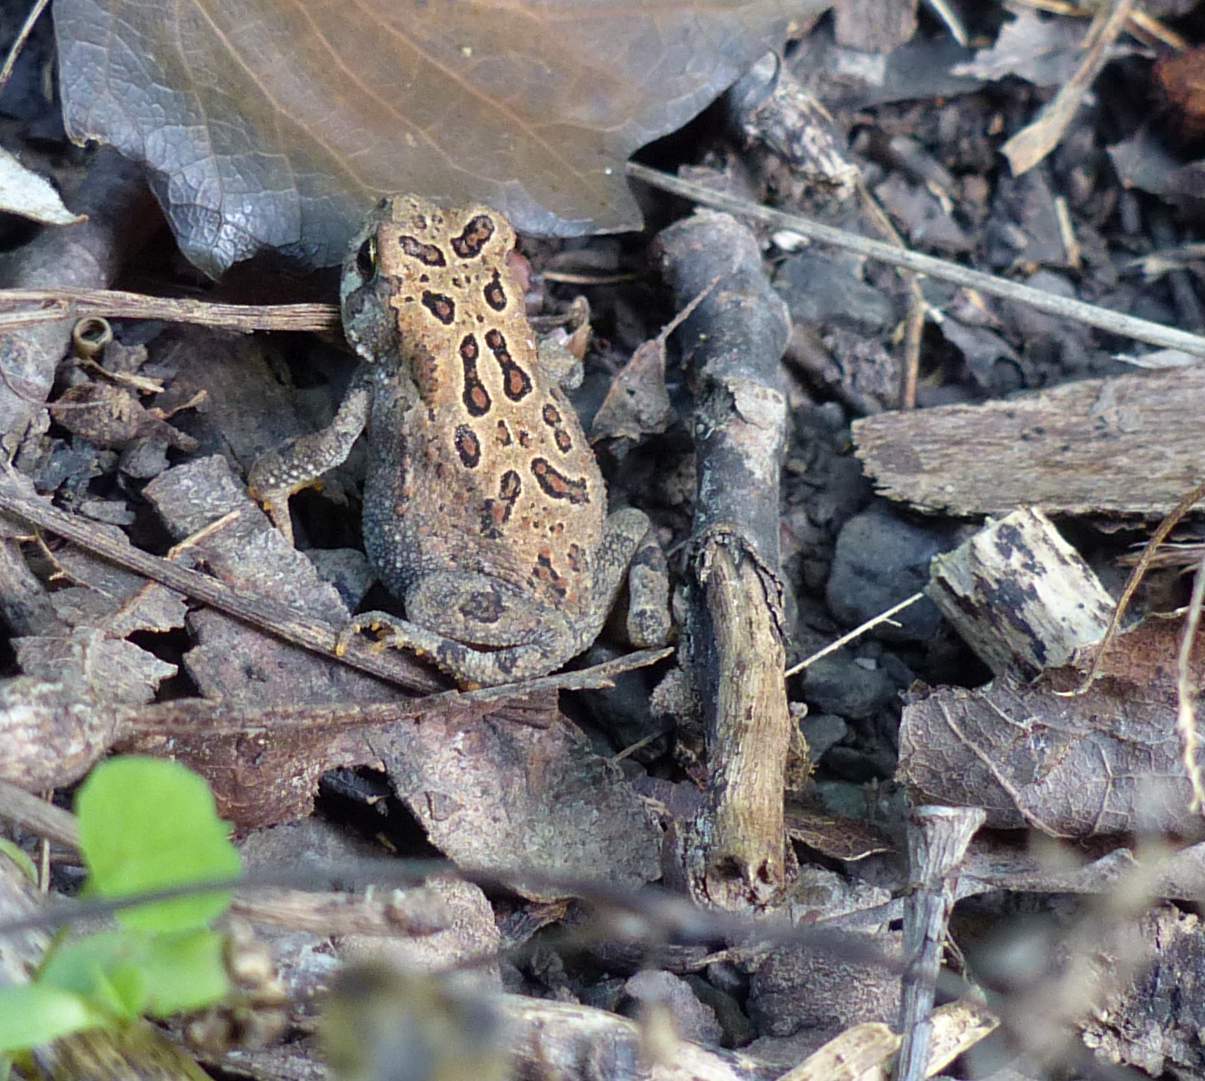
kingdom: Animalia
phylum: Chordata
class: Amphibia
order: Anura
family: Bufonidae
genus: Anaxyrus
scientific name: Anaxyrus americanus
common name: American toad
